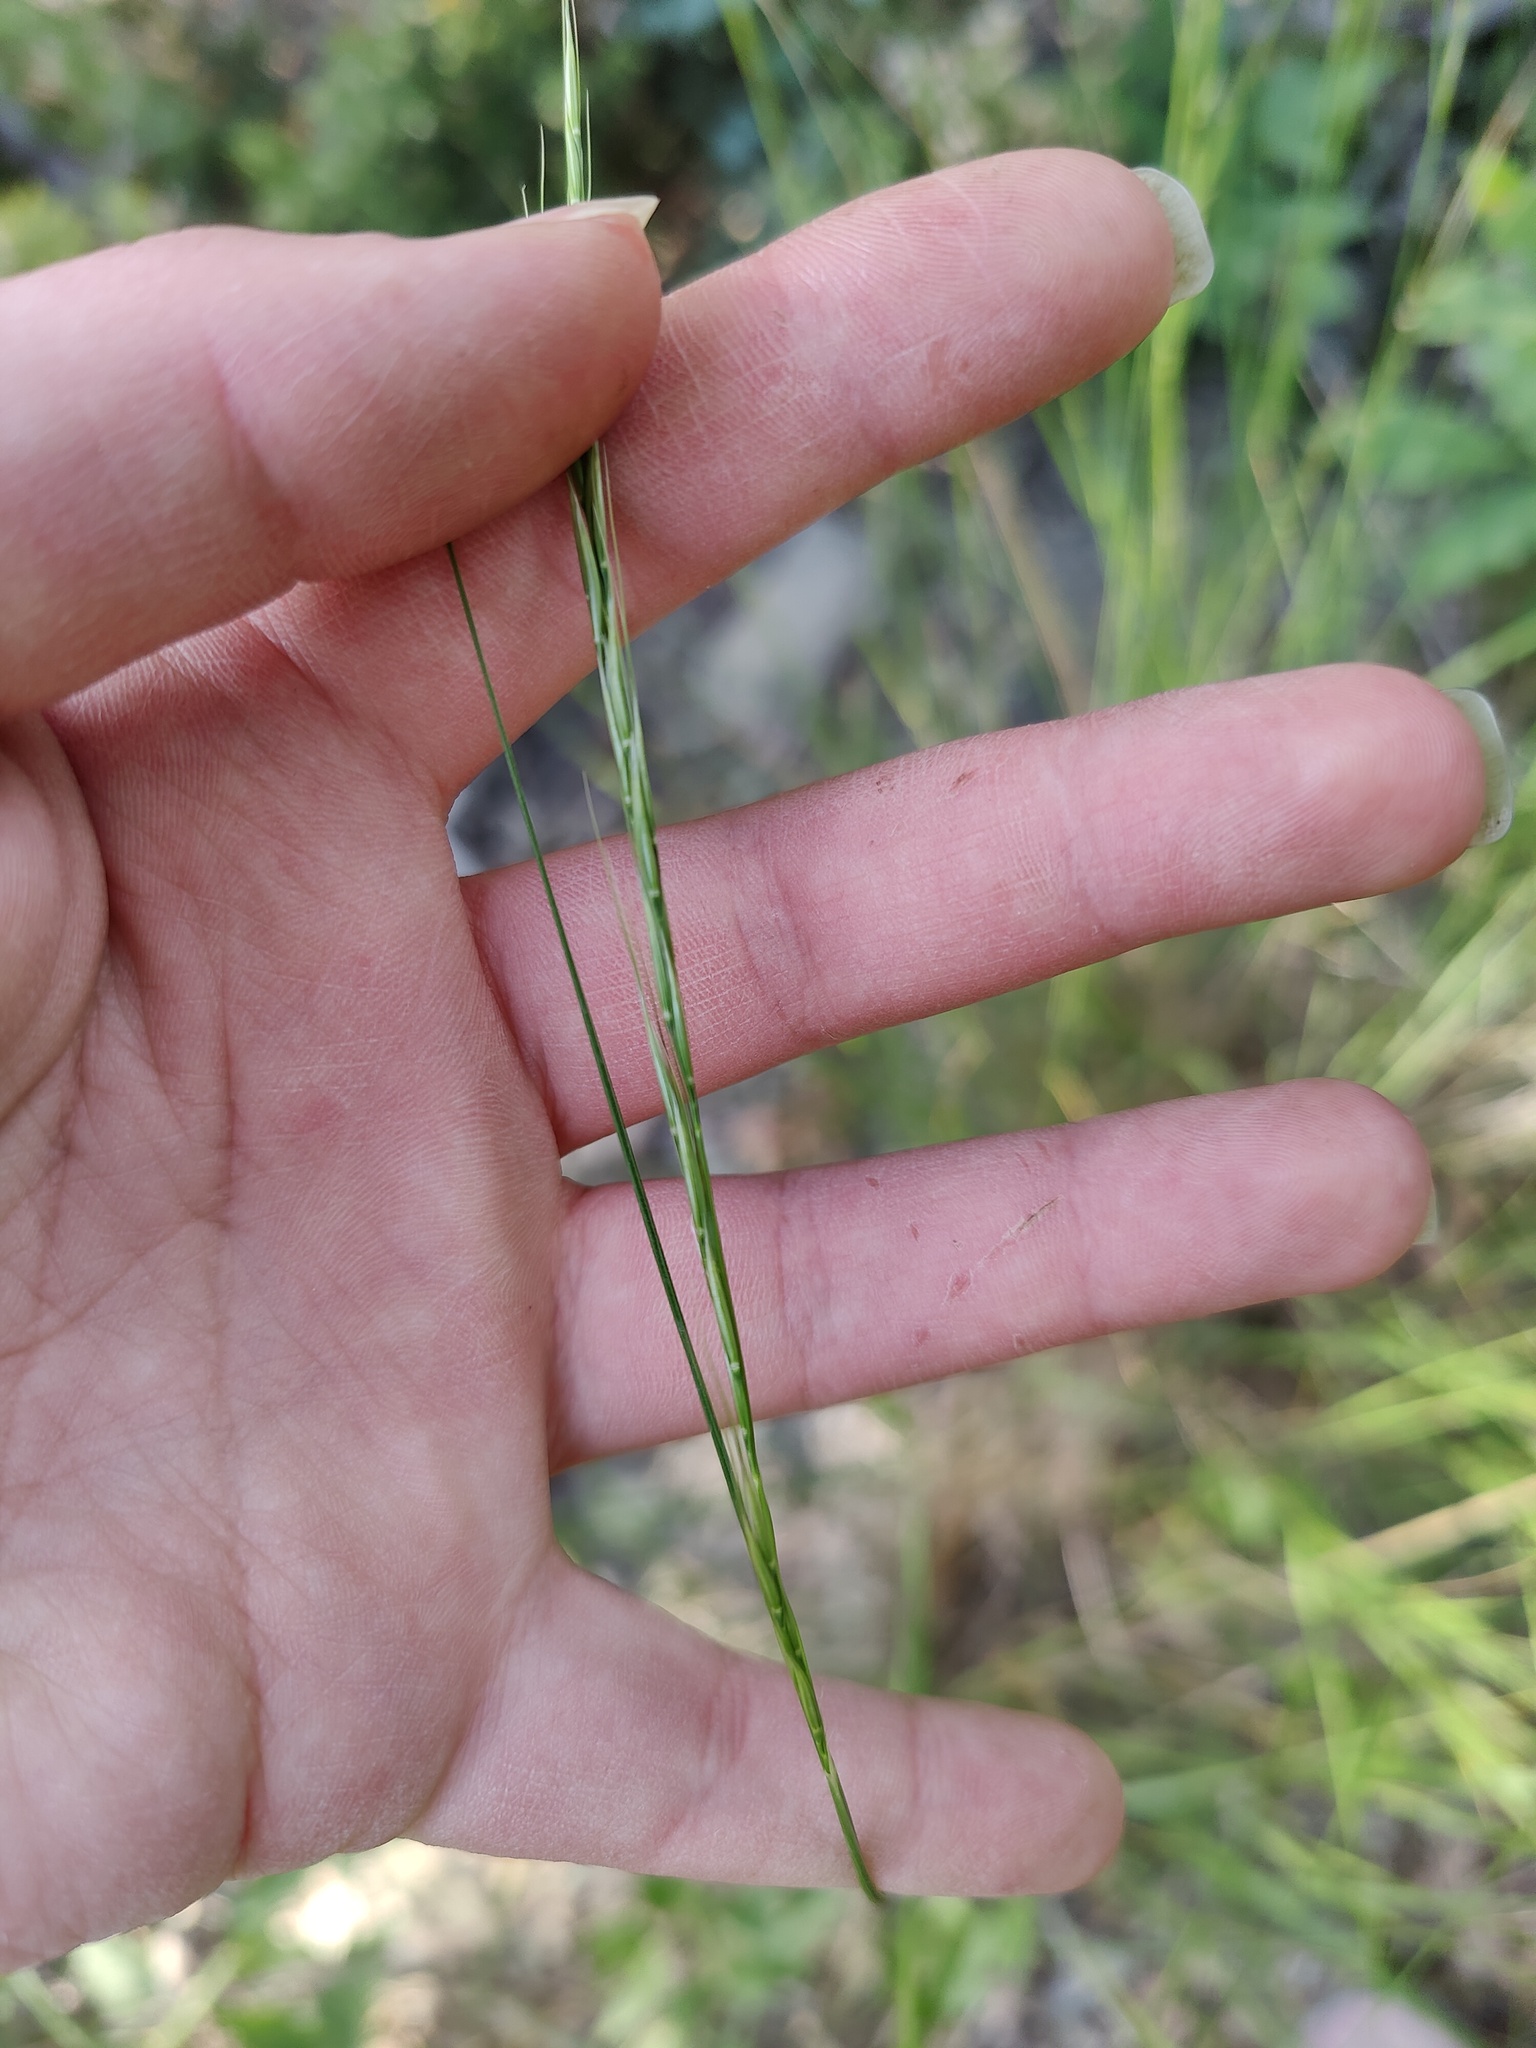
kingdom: Plantae
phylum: Tracheophyta
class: Liliopsida
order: Poales
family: Poaceae
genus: Achnatherum
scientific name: Achnatherum bromoides
